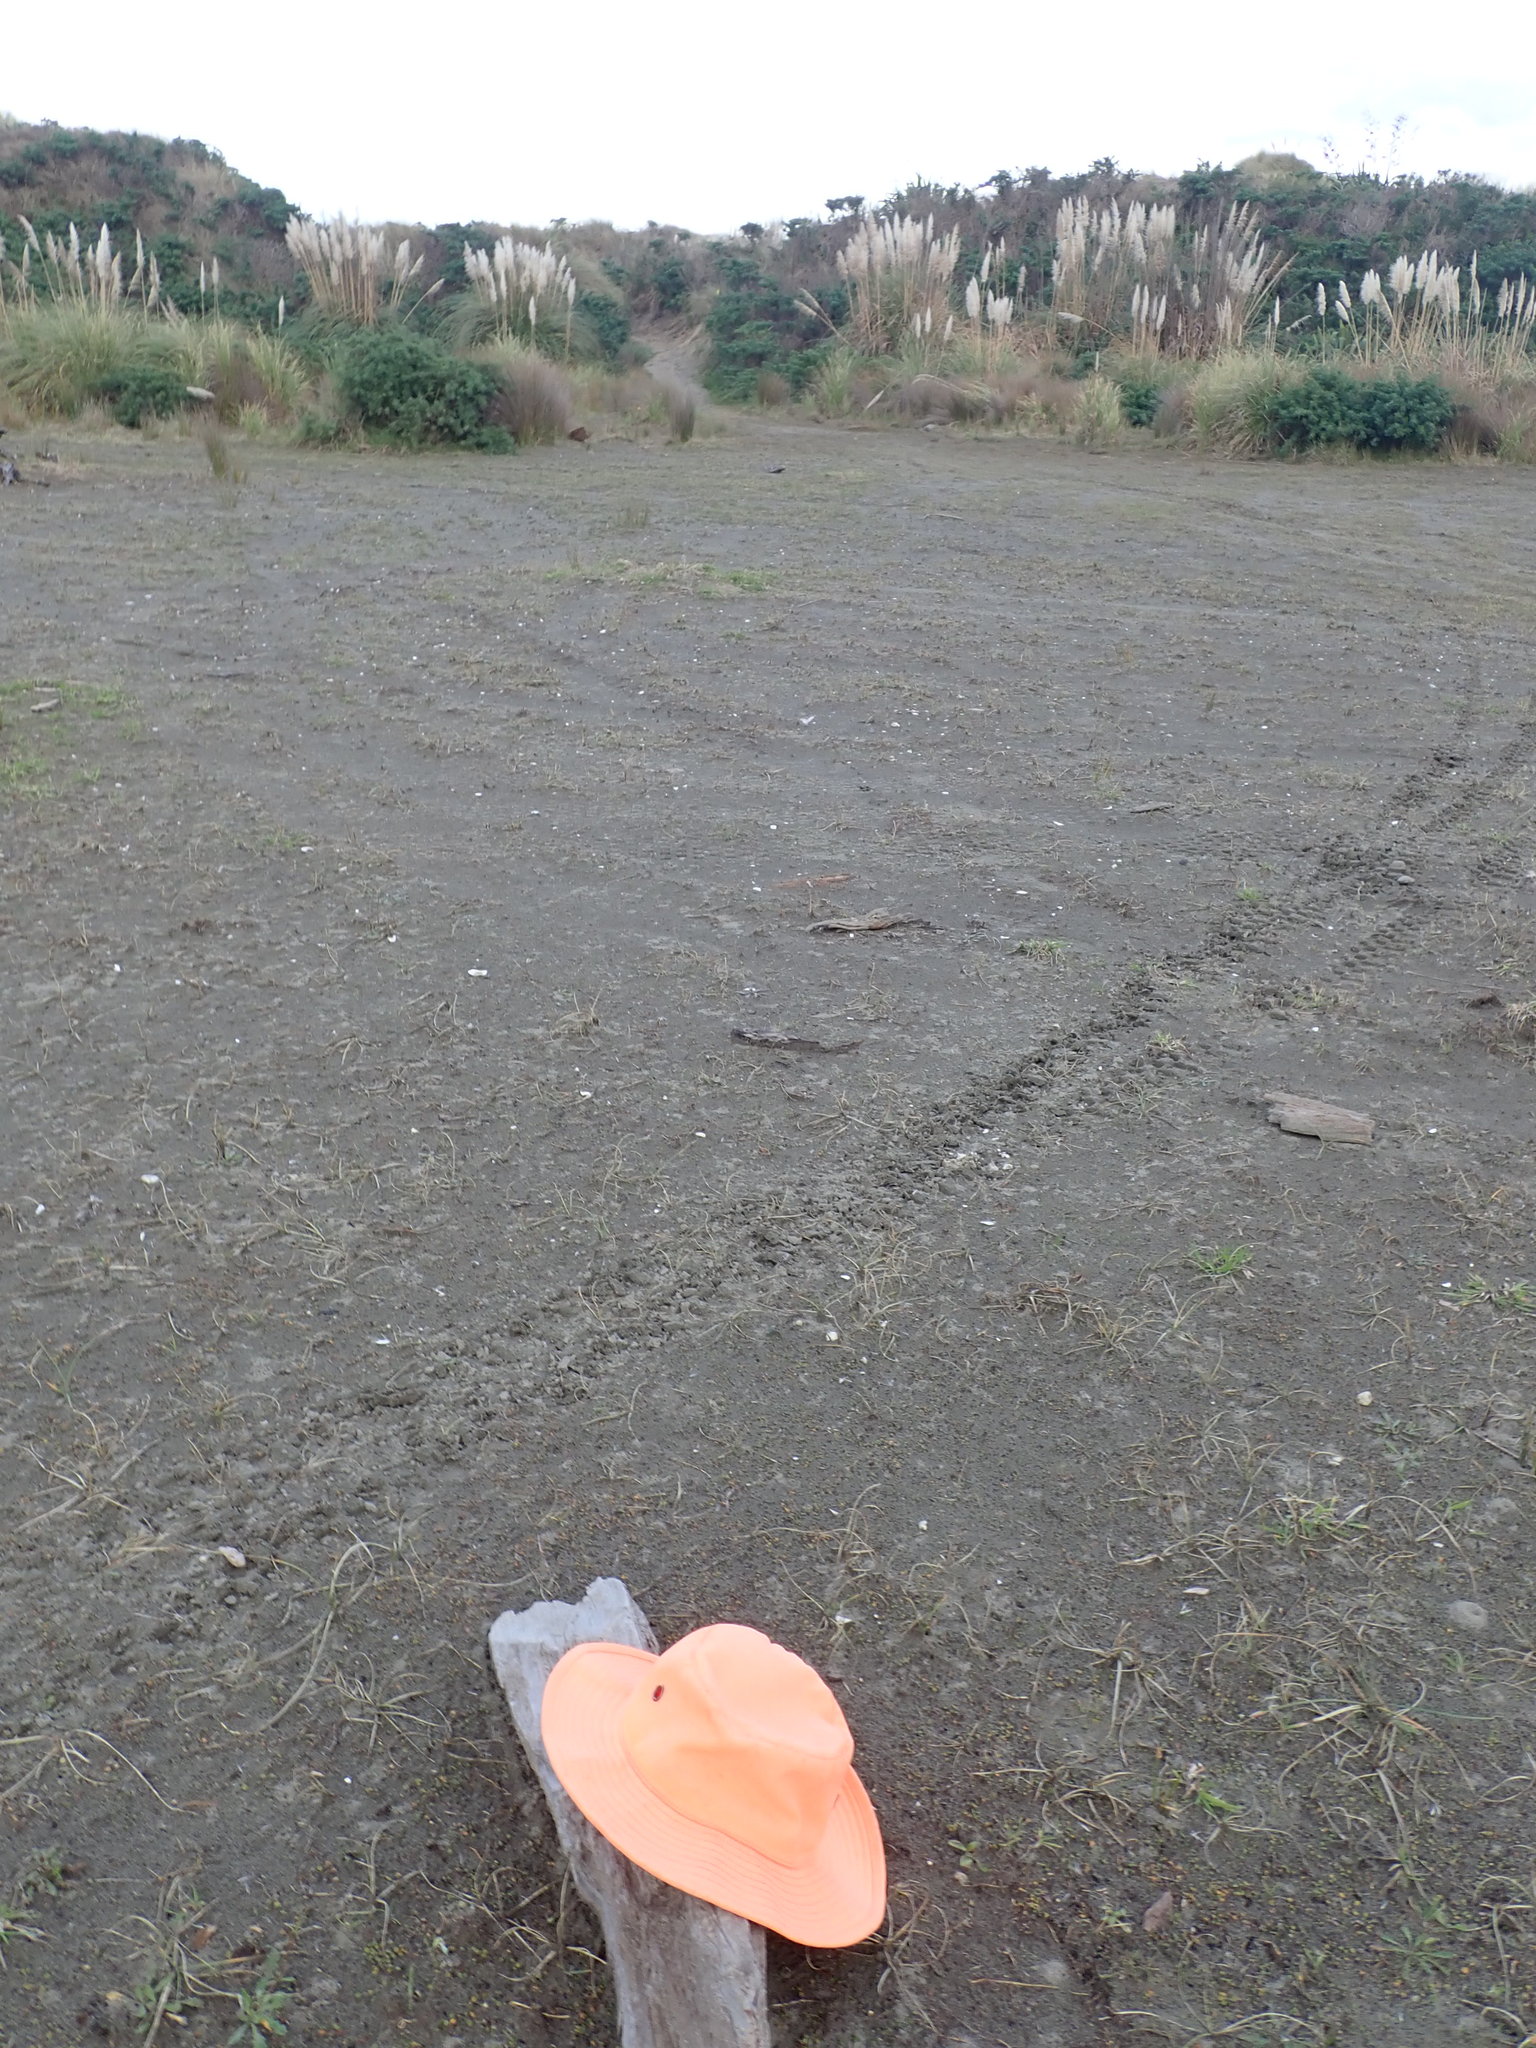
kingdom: Animalia
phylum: Arthropoda
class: Arachnida
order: Araneae
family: Theridiidae
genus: Latrodectus
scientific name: Latrodectus katipo
